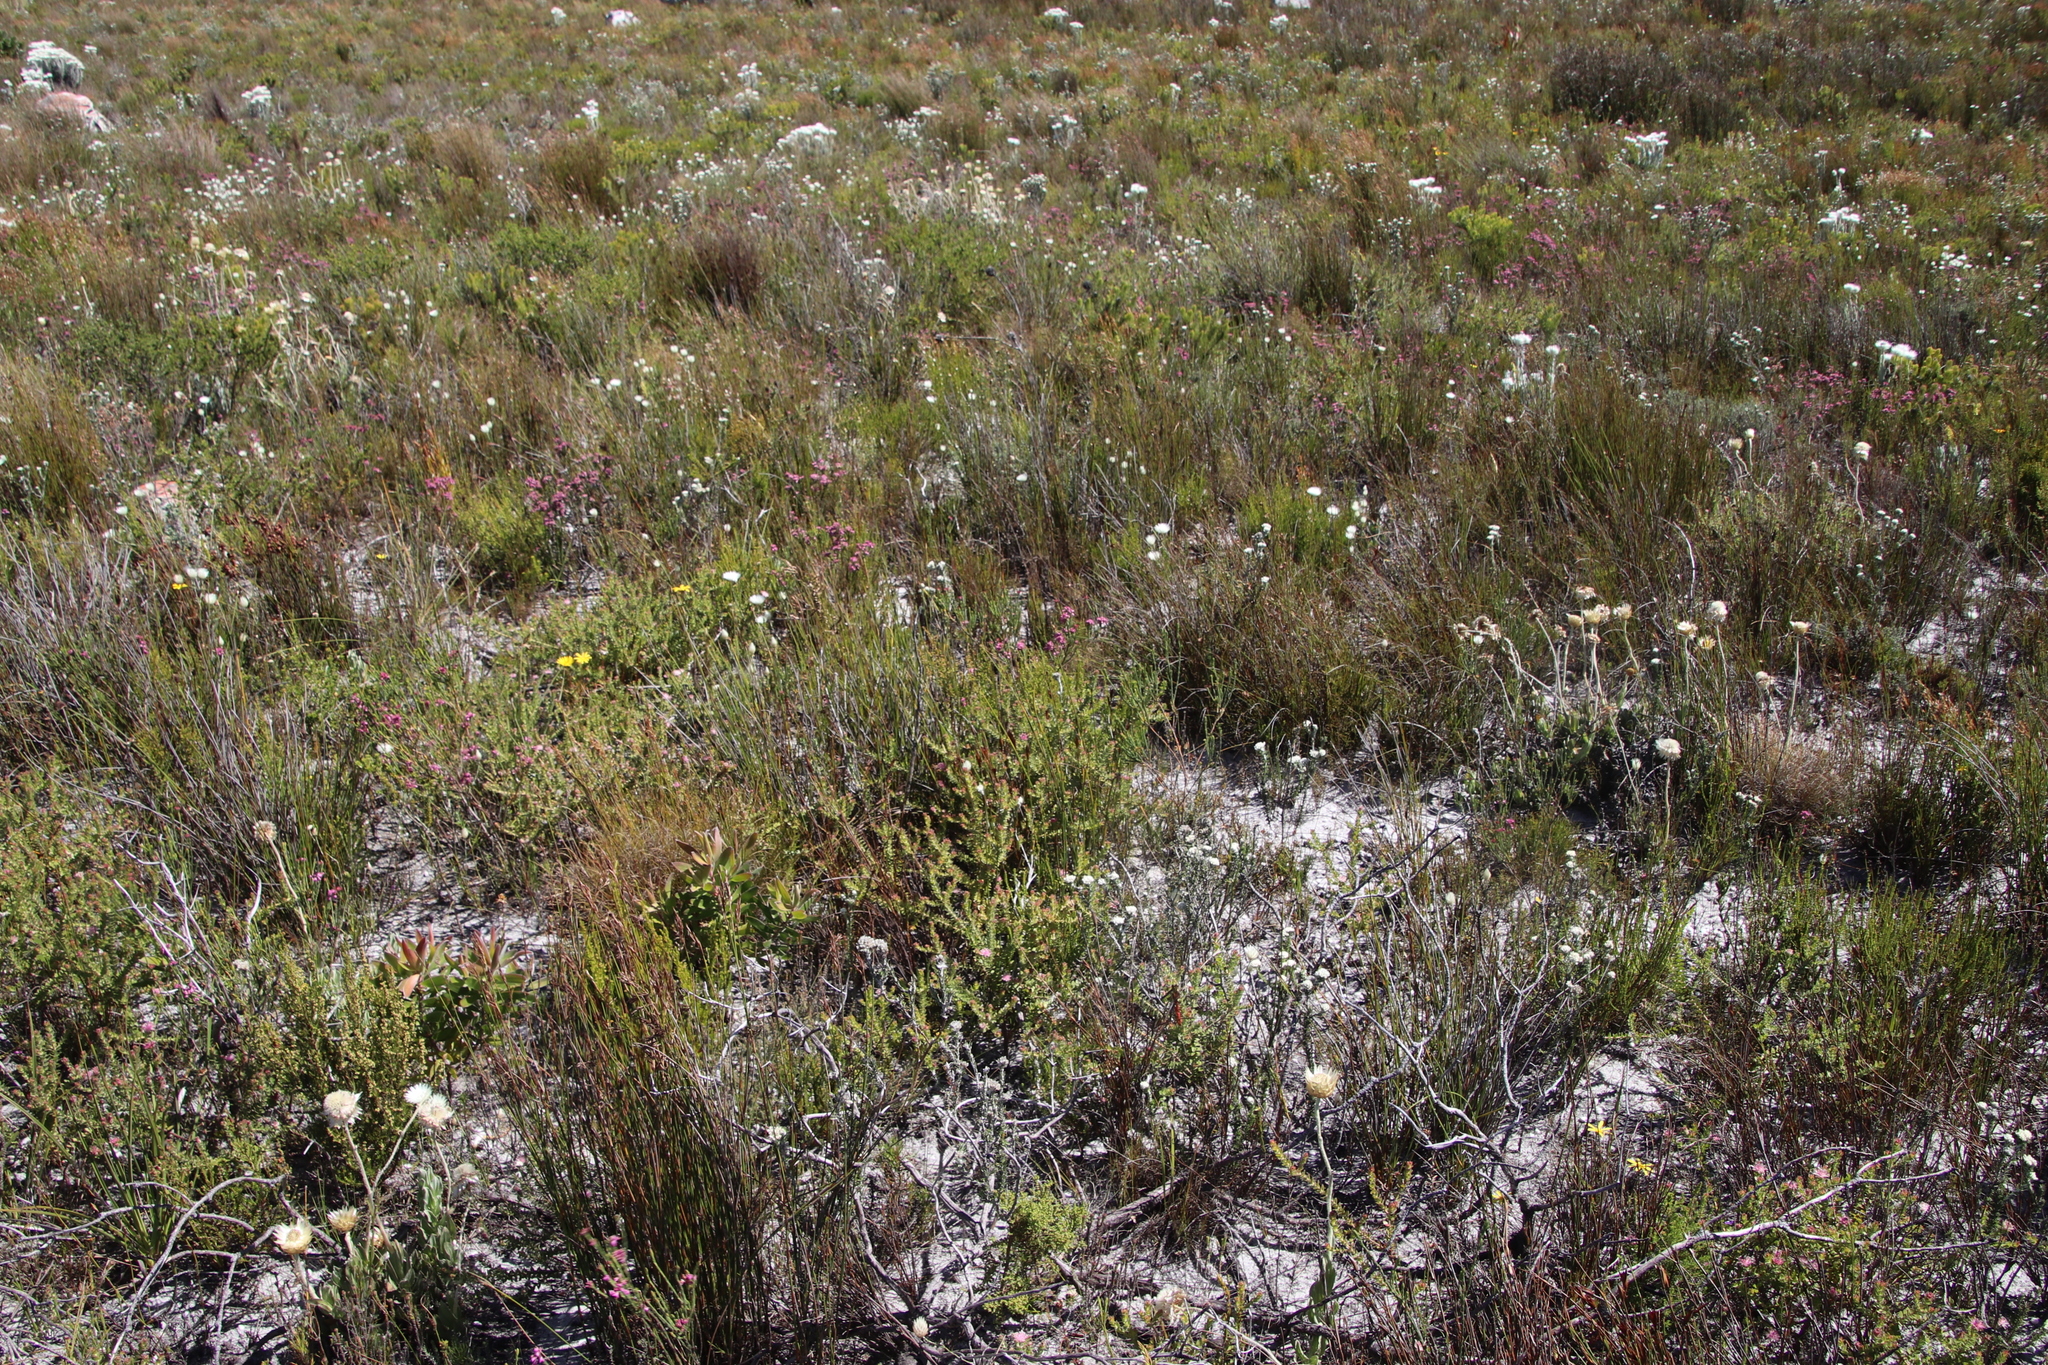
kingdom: Plantae
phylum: Tracheophyta
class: Magnoliopsida
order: Asterales
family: Asteraceae
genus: Edmondia
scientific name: Edmondia sesamoides
